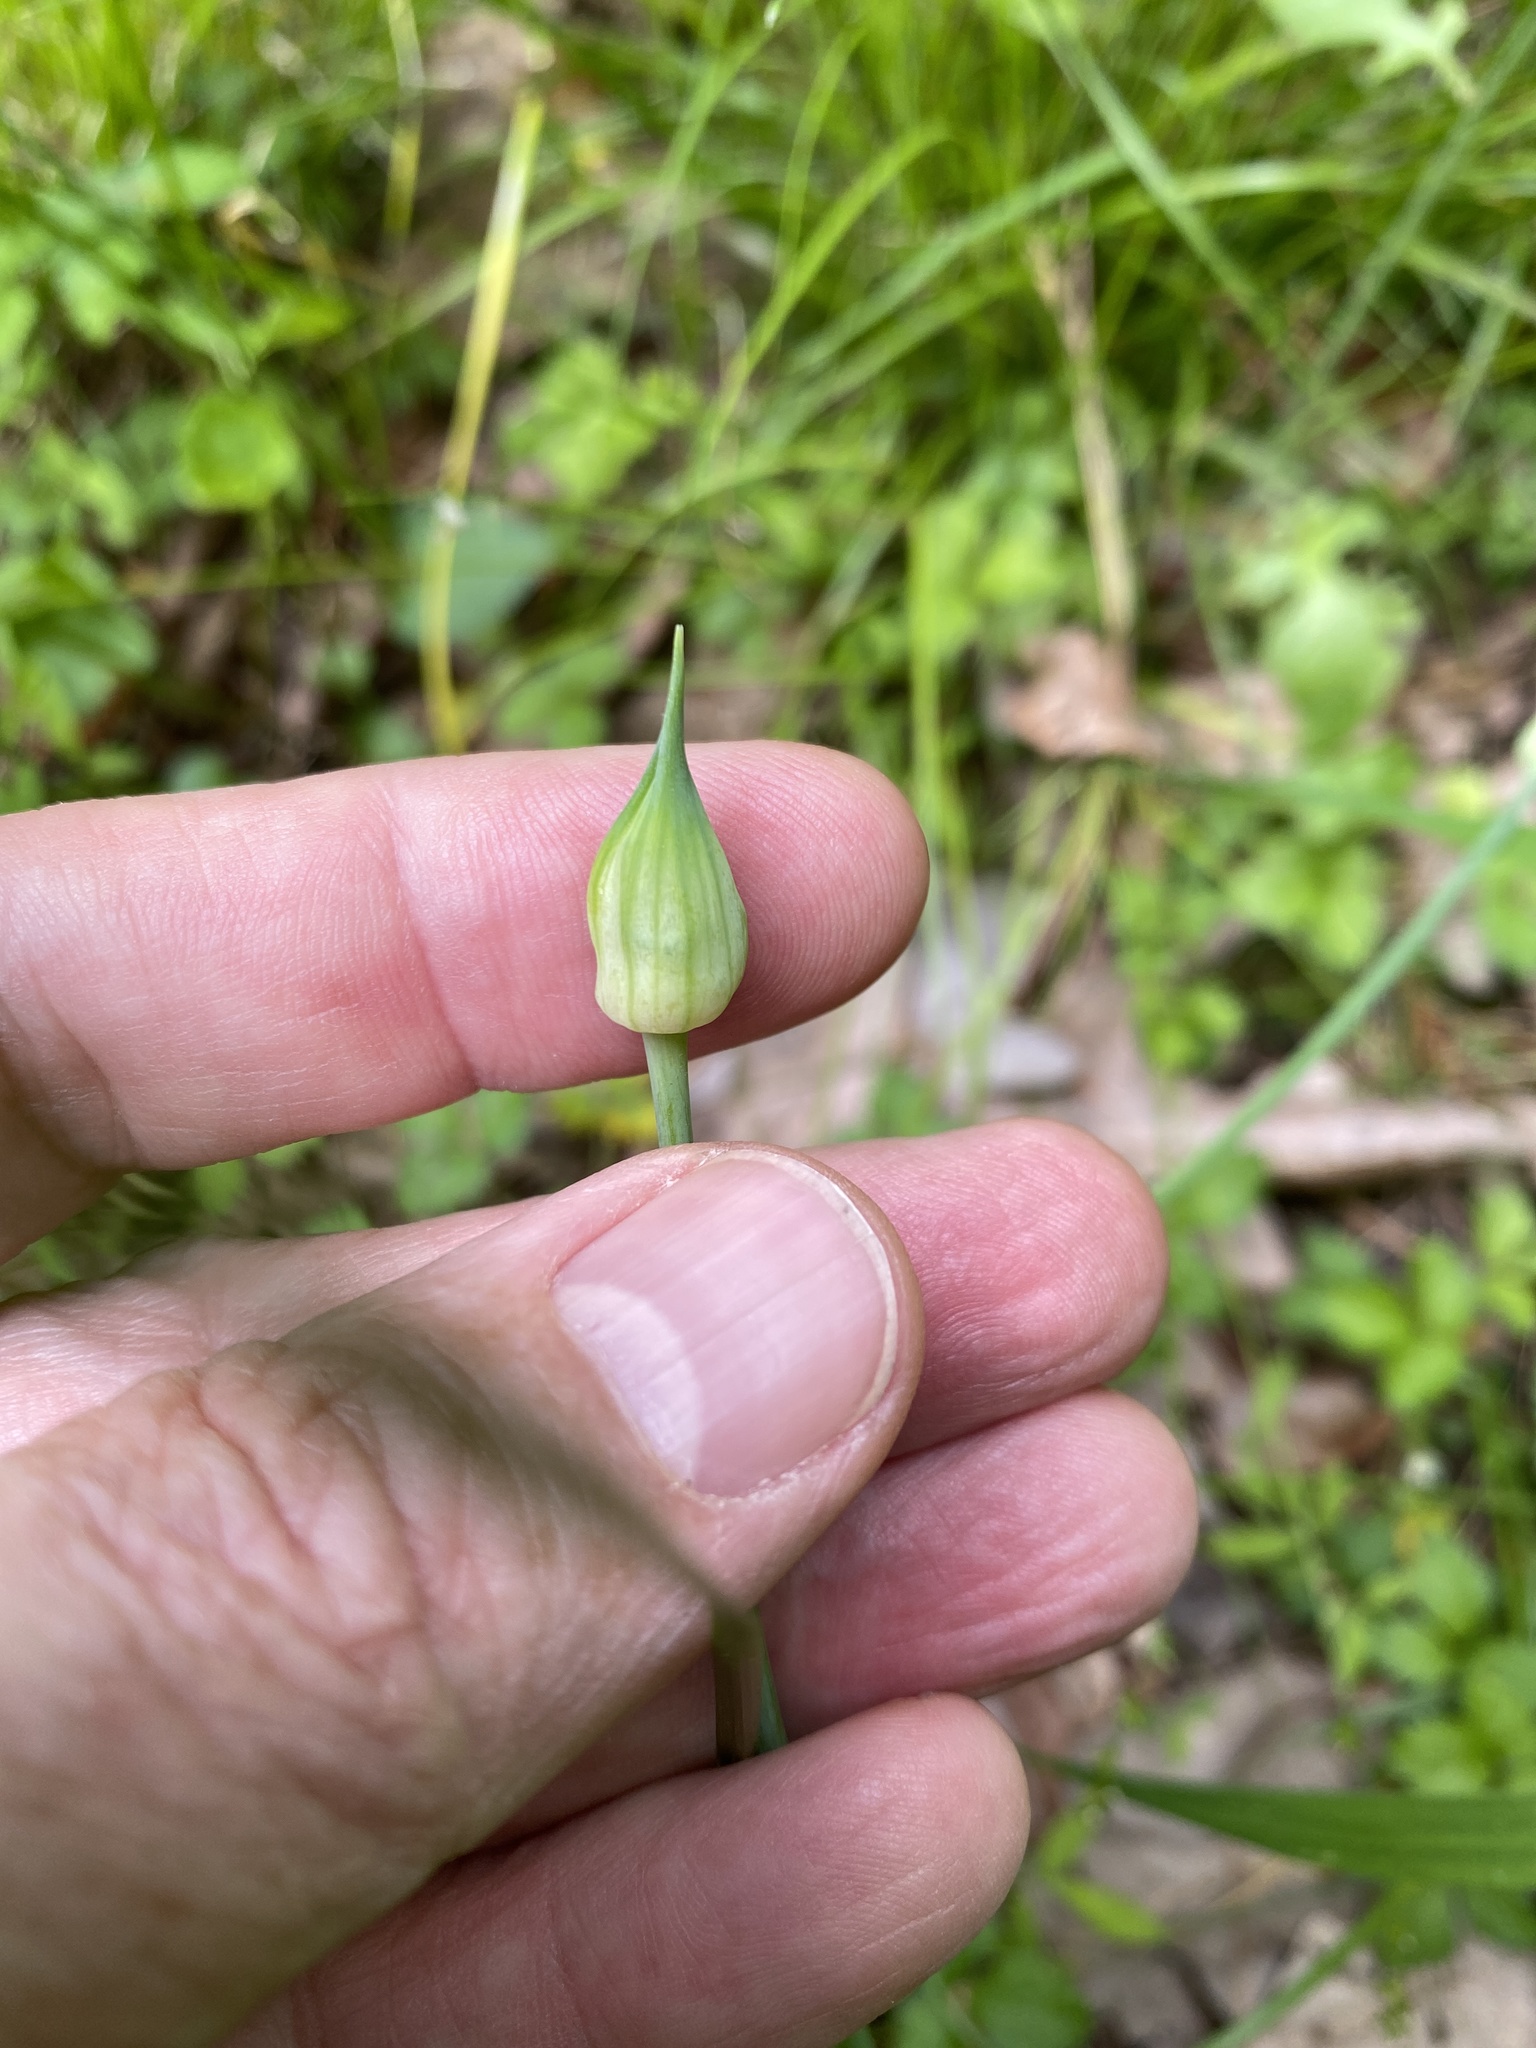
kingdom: Plantae
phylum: Tracheophyta
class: Liliopsida
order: Asparagales
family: Amaryllidaceae
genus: Allium
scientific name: Allium canadense
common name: Meadow garlic
